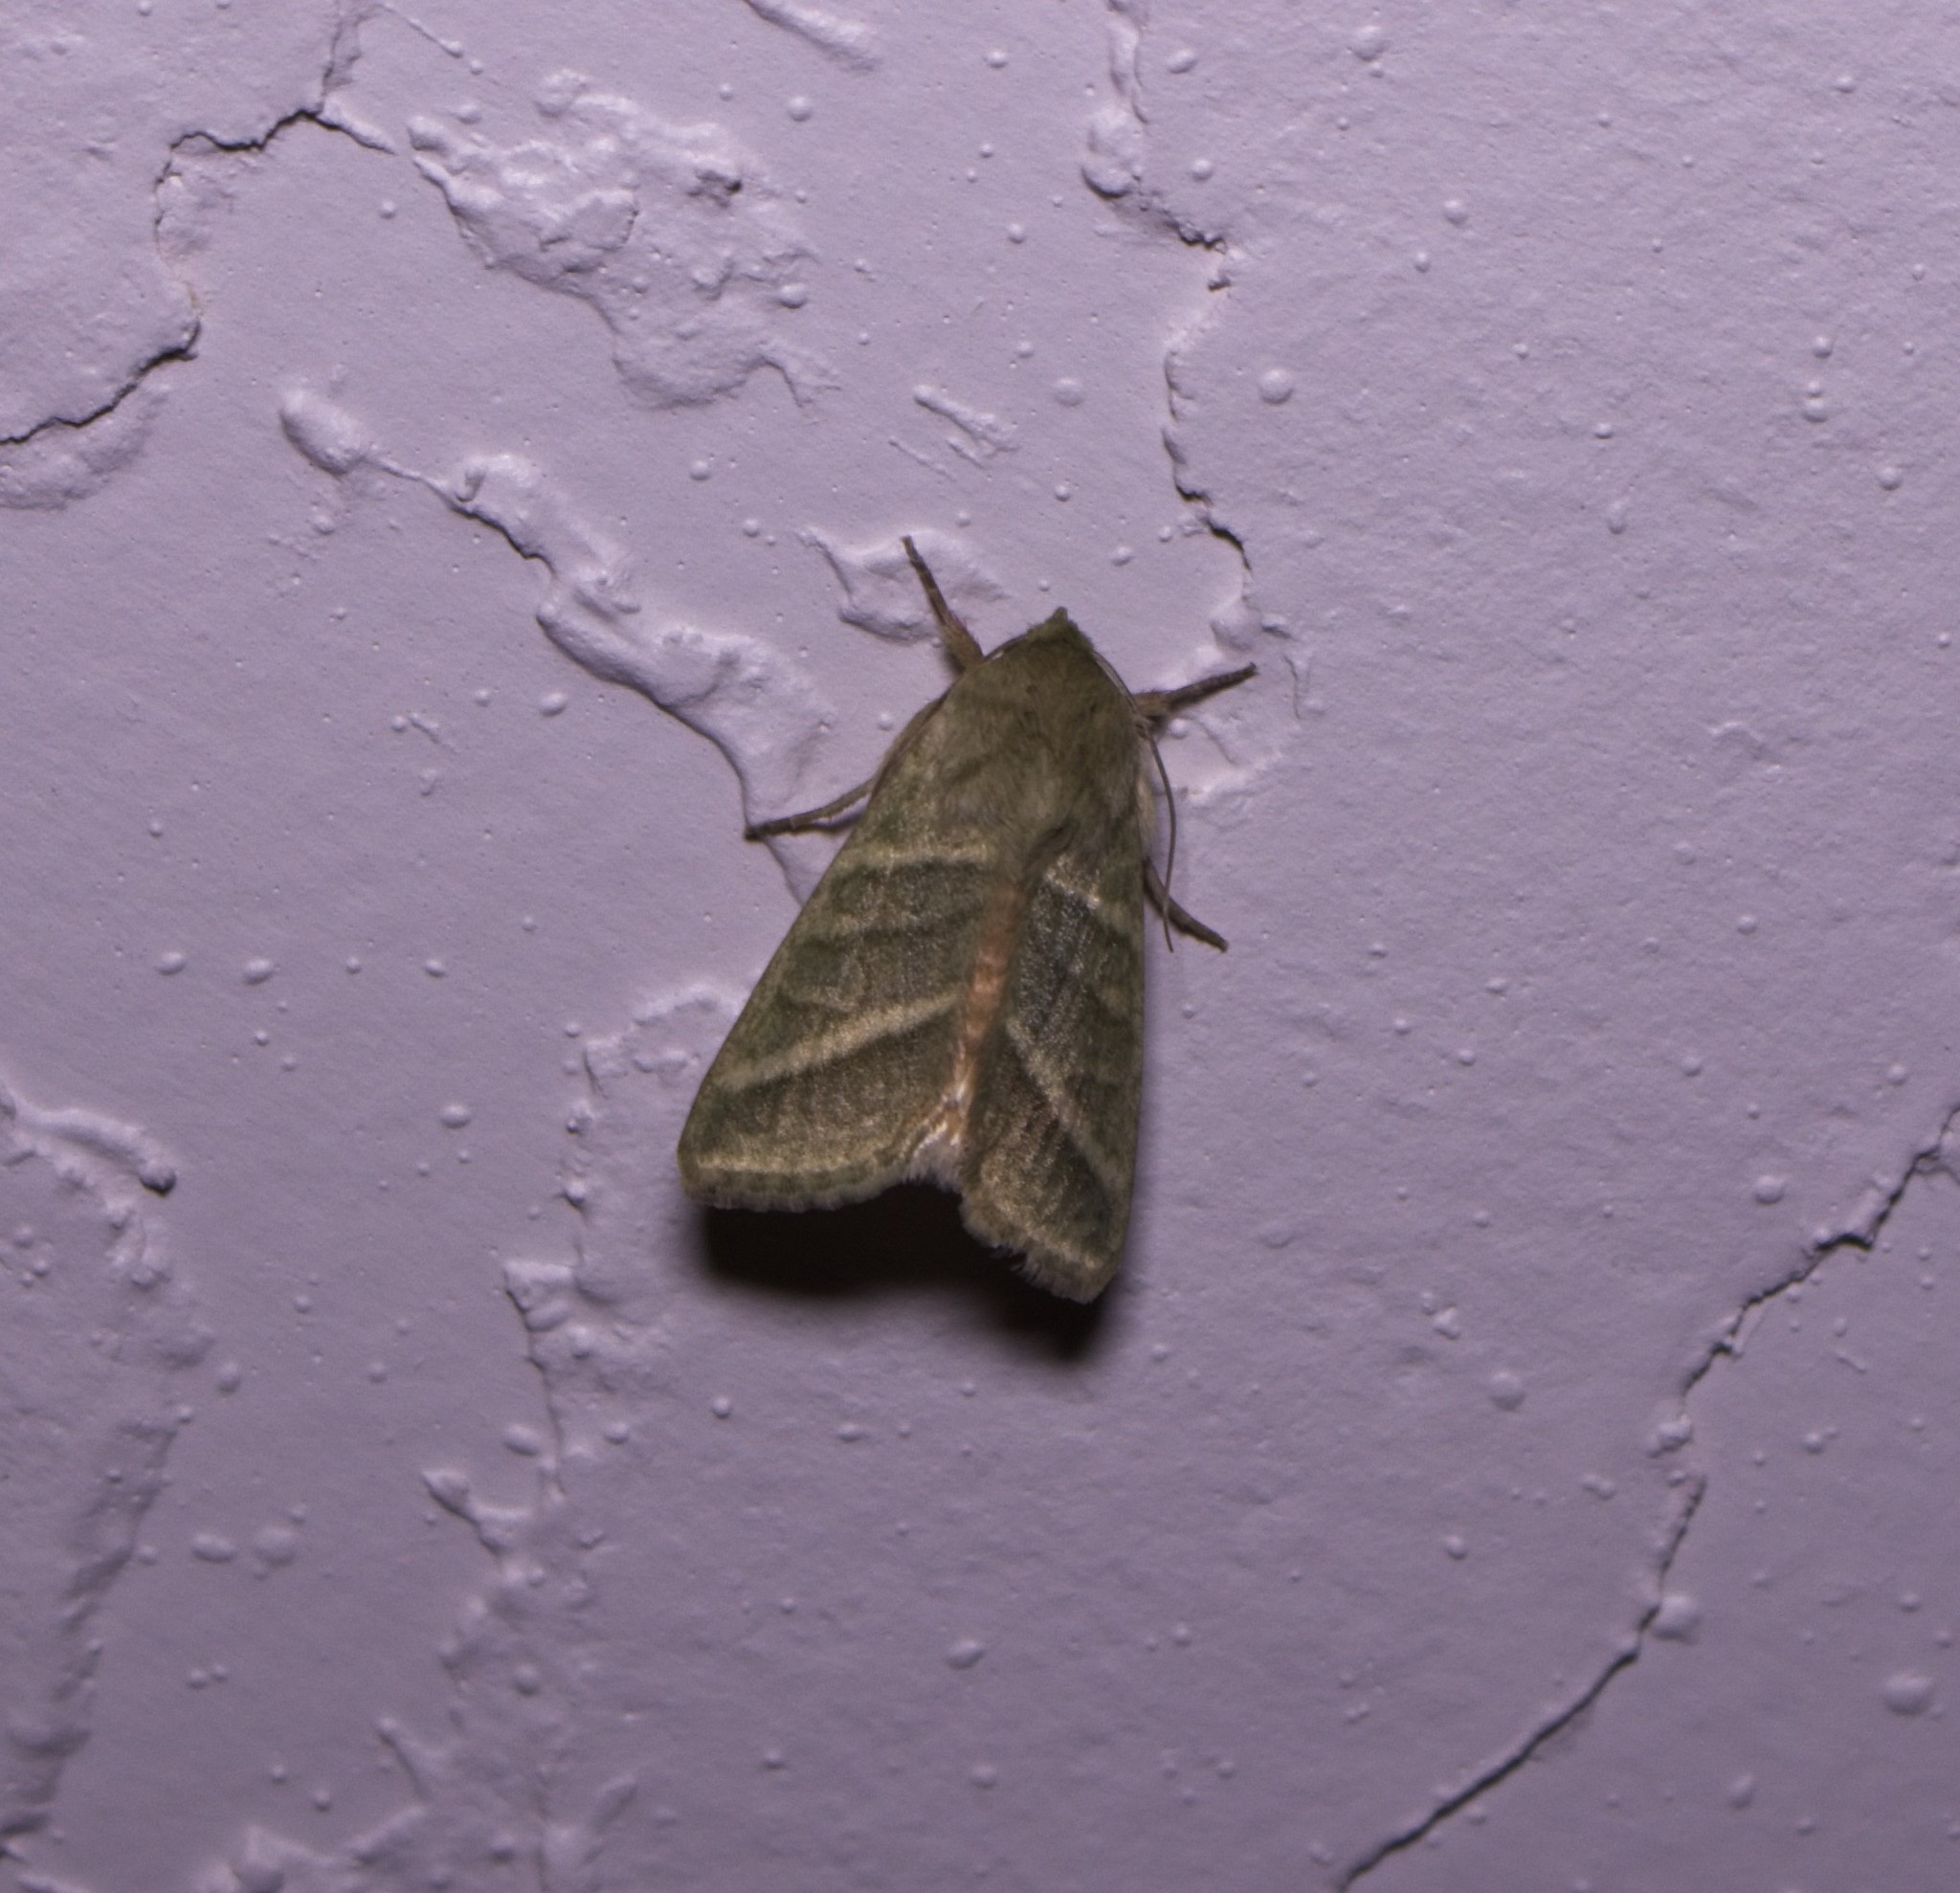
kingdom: Animalia
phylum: Arthropoda
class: Insecta
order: Lepidoptera
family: Noctuidae
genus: Chloridea
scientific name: Chloridea virescens
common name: Tobacco budworm
